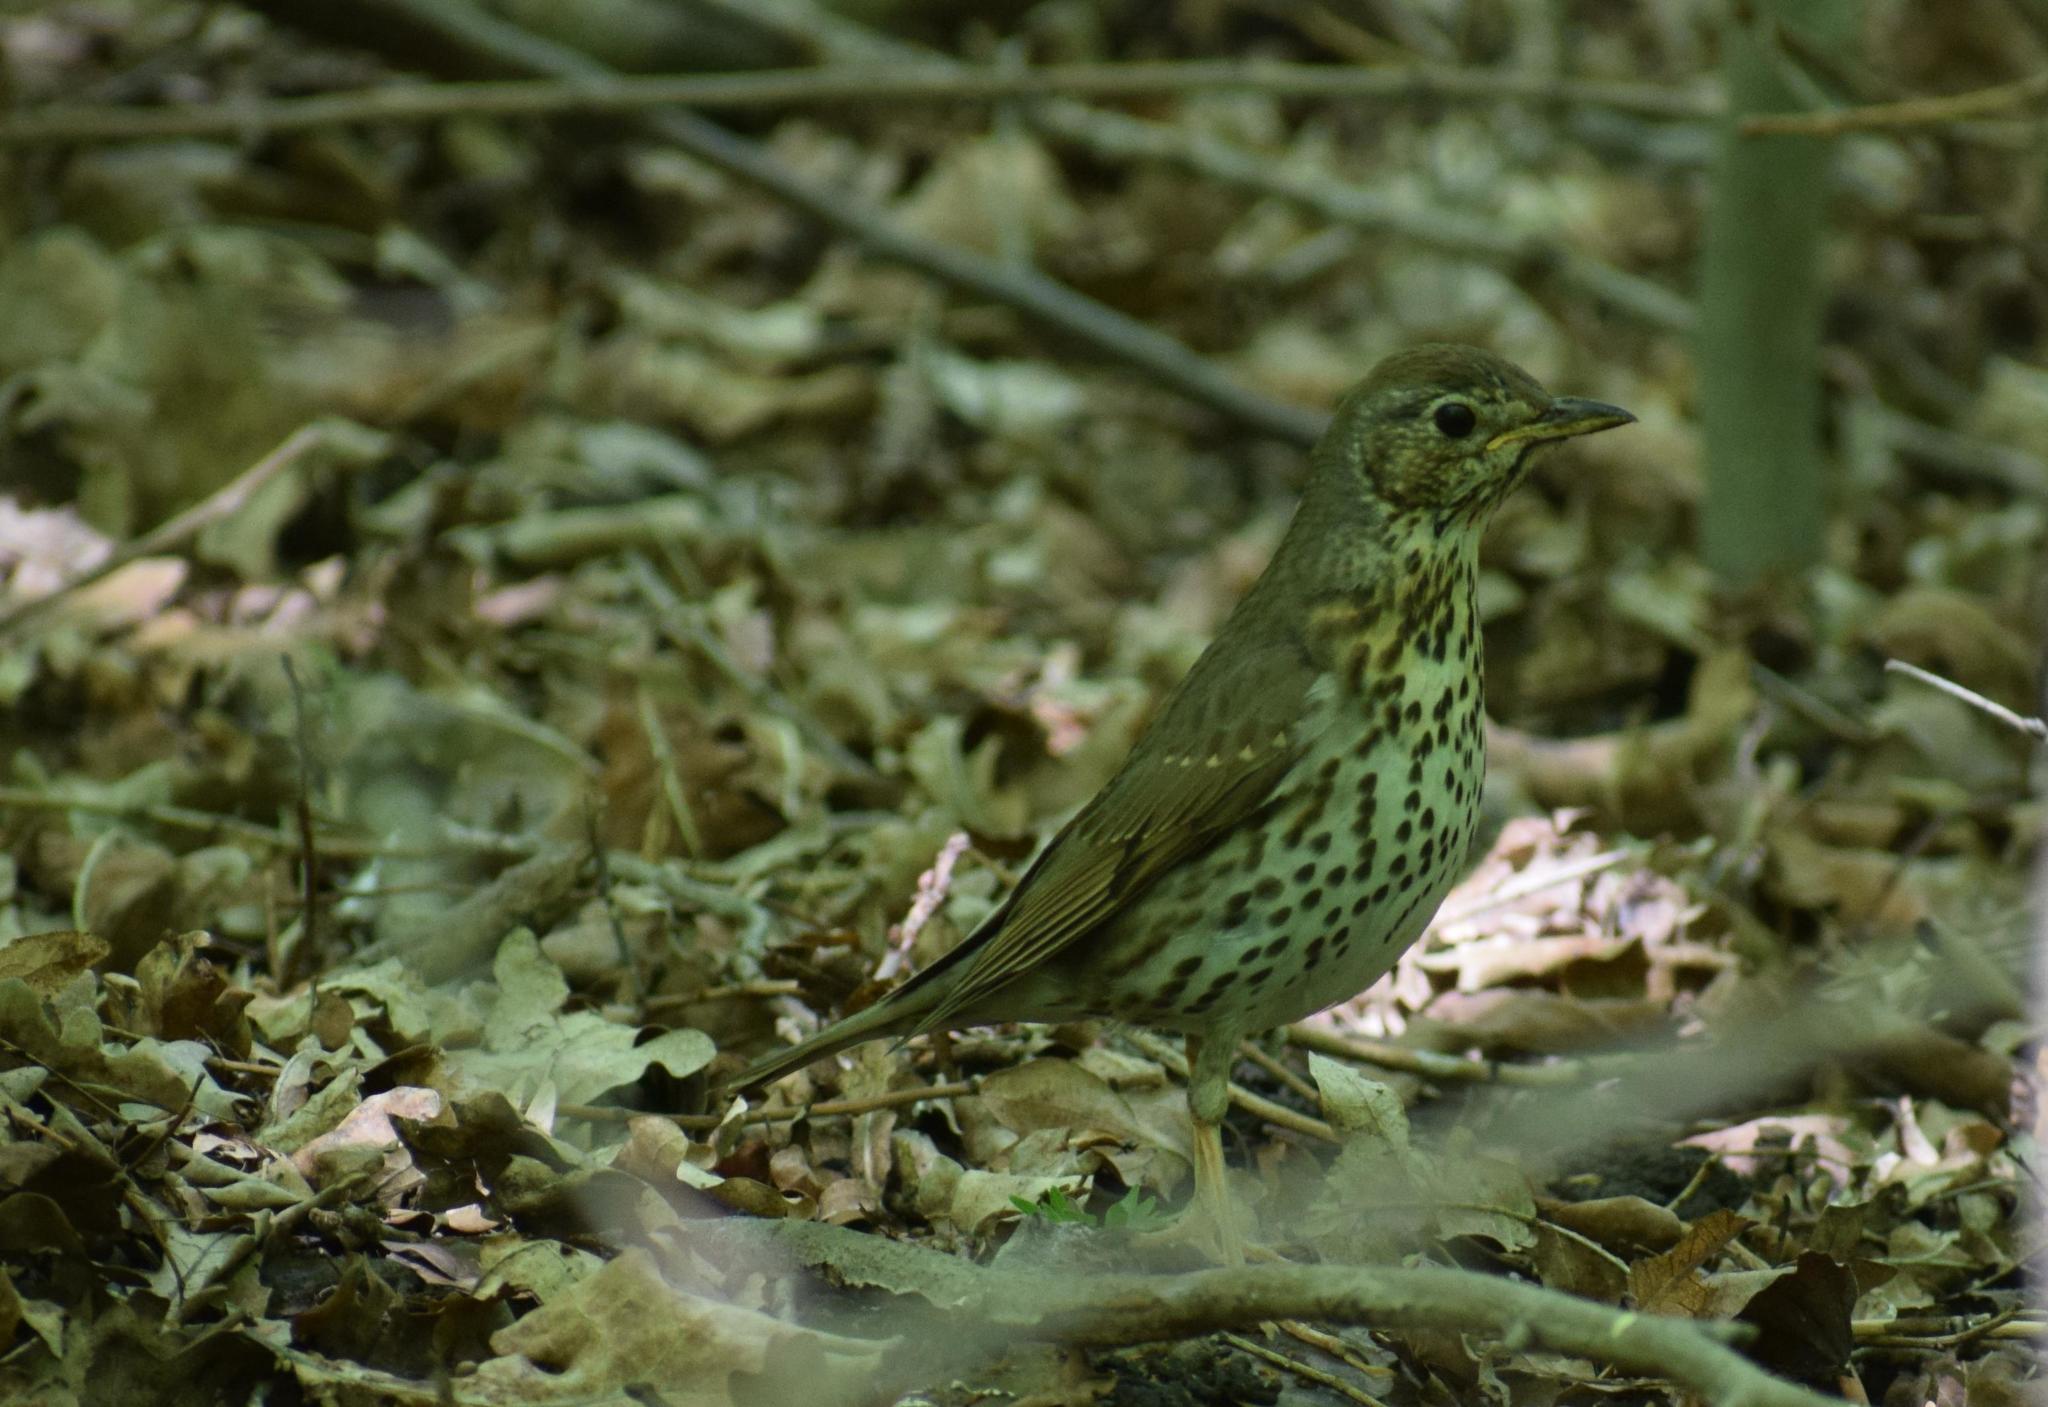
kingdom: Animalia
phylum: Chordata
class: Aves
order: Passeriformes
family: Turdidae
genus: Turdus
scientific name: Turdus philomelos
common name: Song thrush
